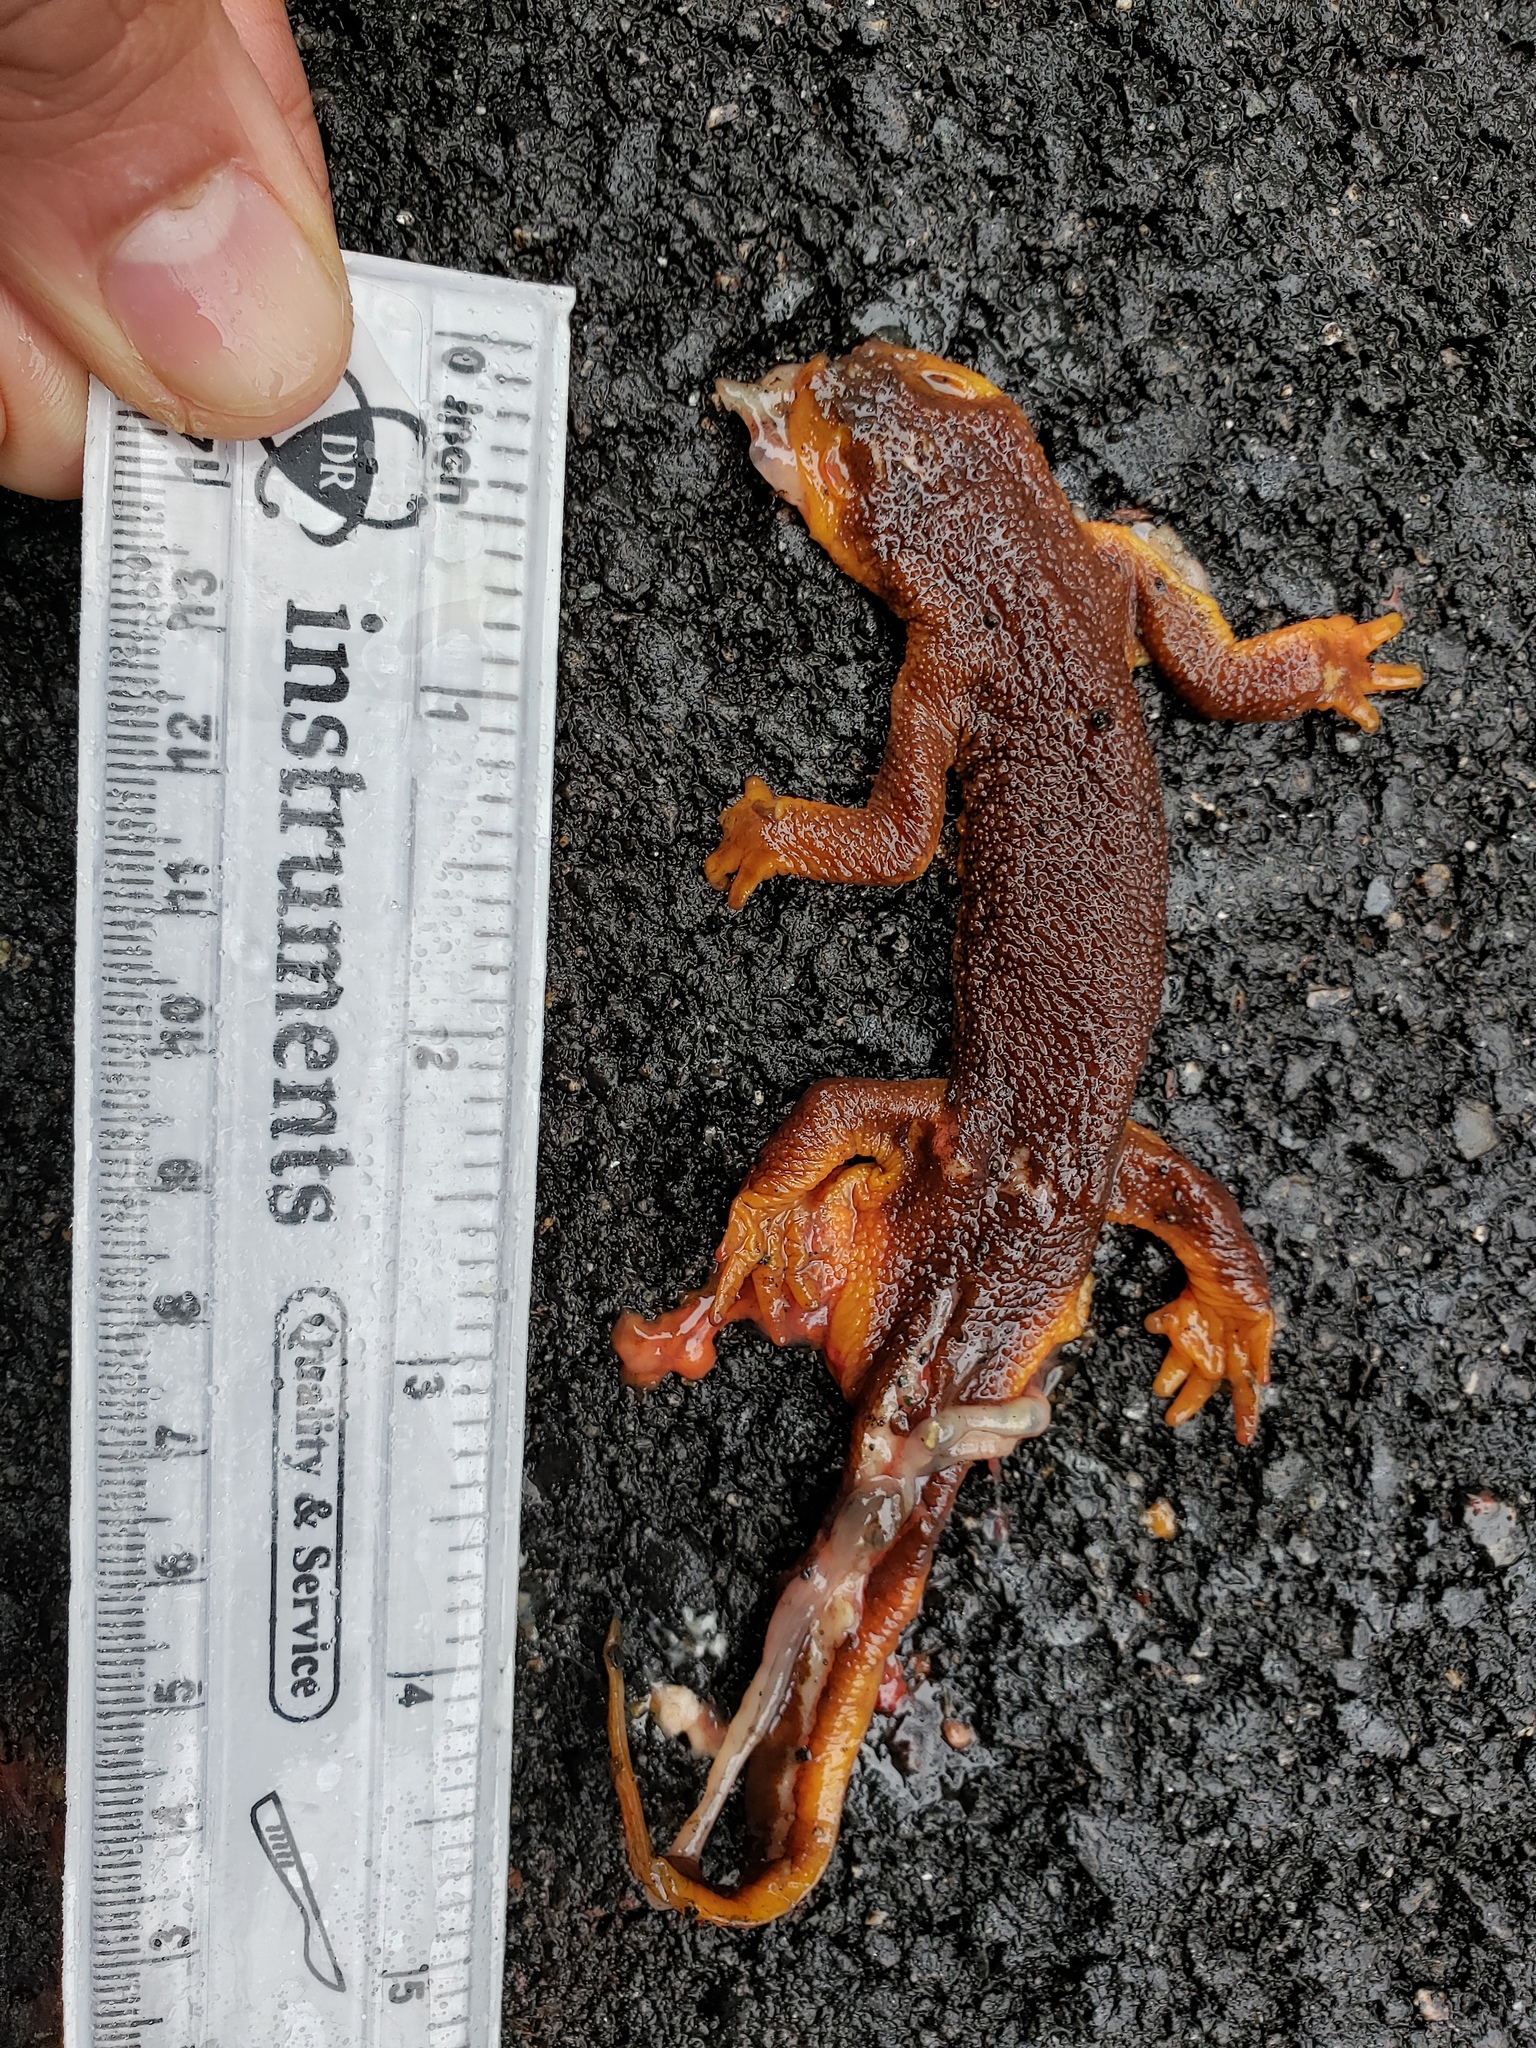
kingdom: Animalia
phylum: Chordata
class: Amphibia
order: Caudata
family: Salamandridae
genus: Taricha
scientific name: Taricha torosa
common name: California newt
